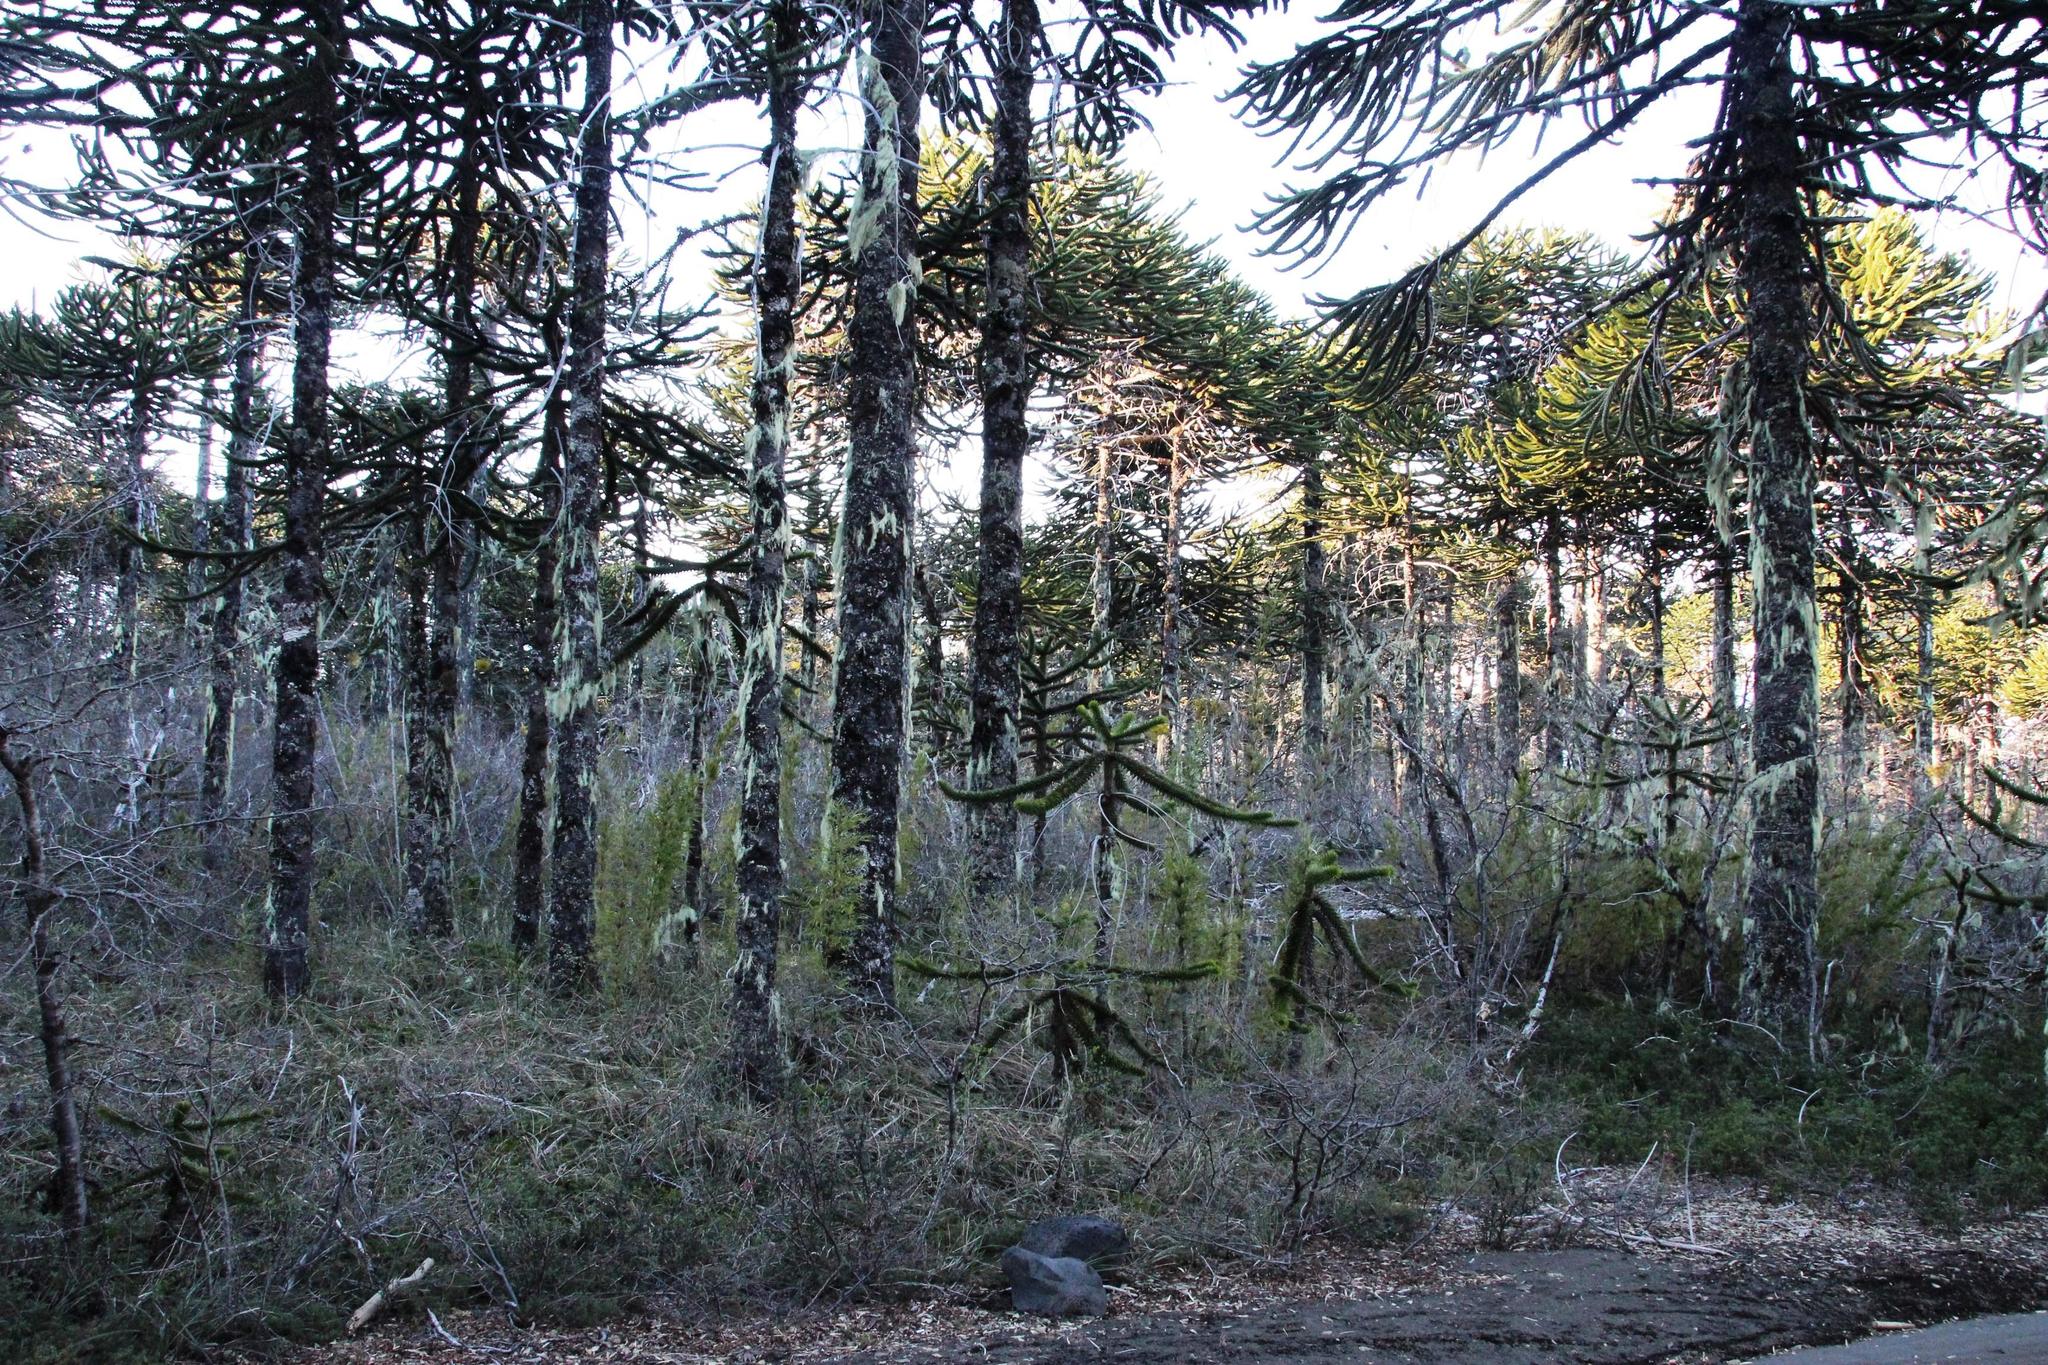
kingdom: Plantae
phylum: Tracheophyta
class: Pinopsida
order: Pinales
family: Araucariaceae
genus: Araucaria
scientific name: Araucaria araucana
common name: Monkey-puzzle
